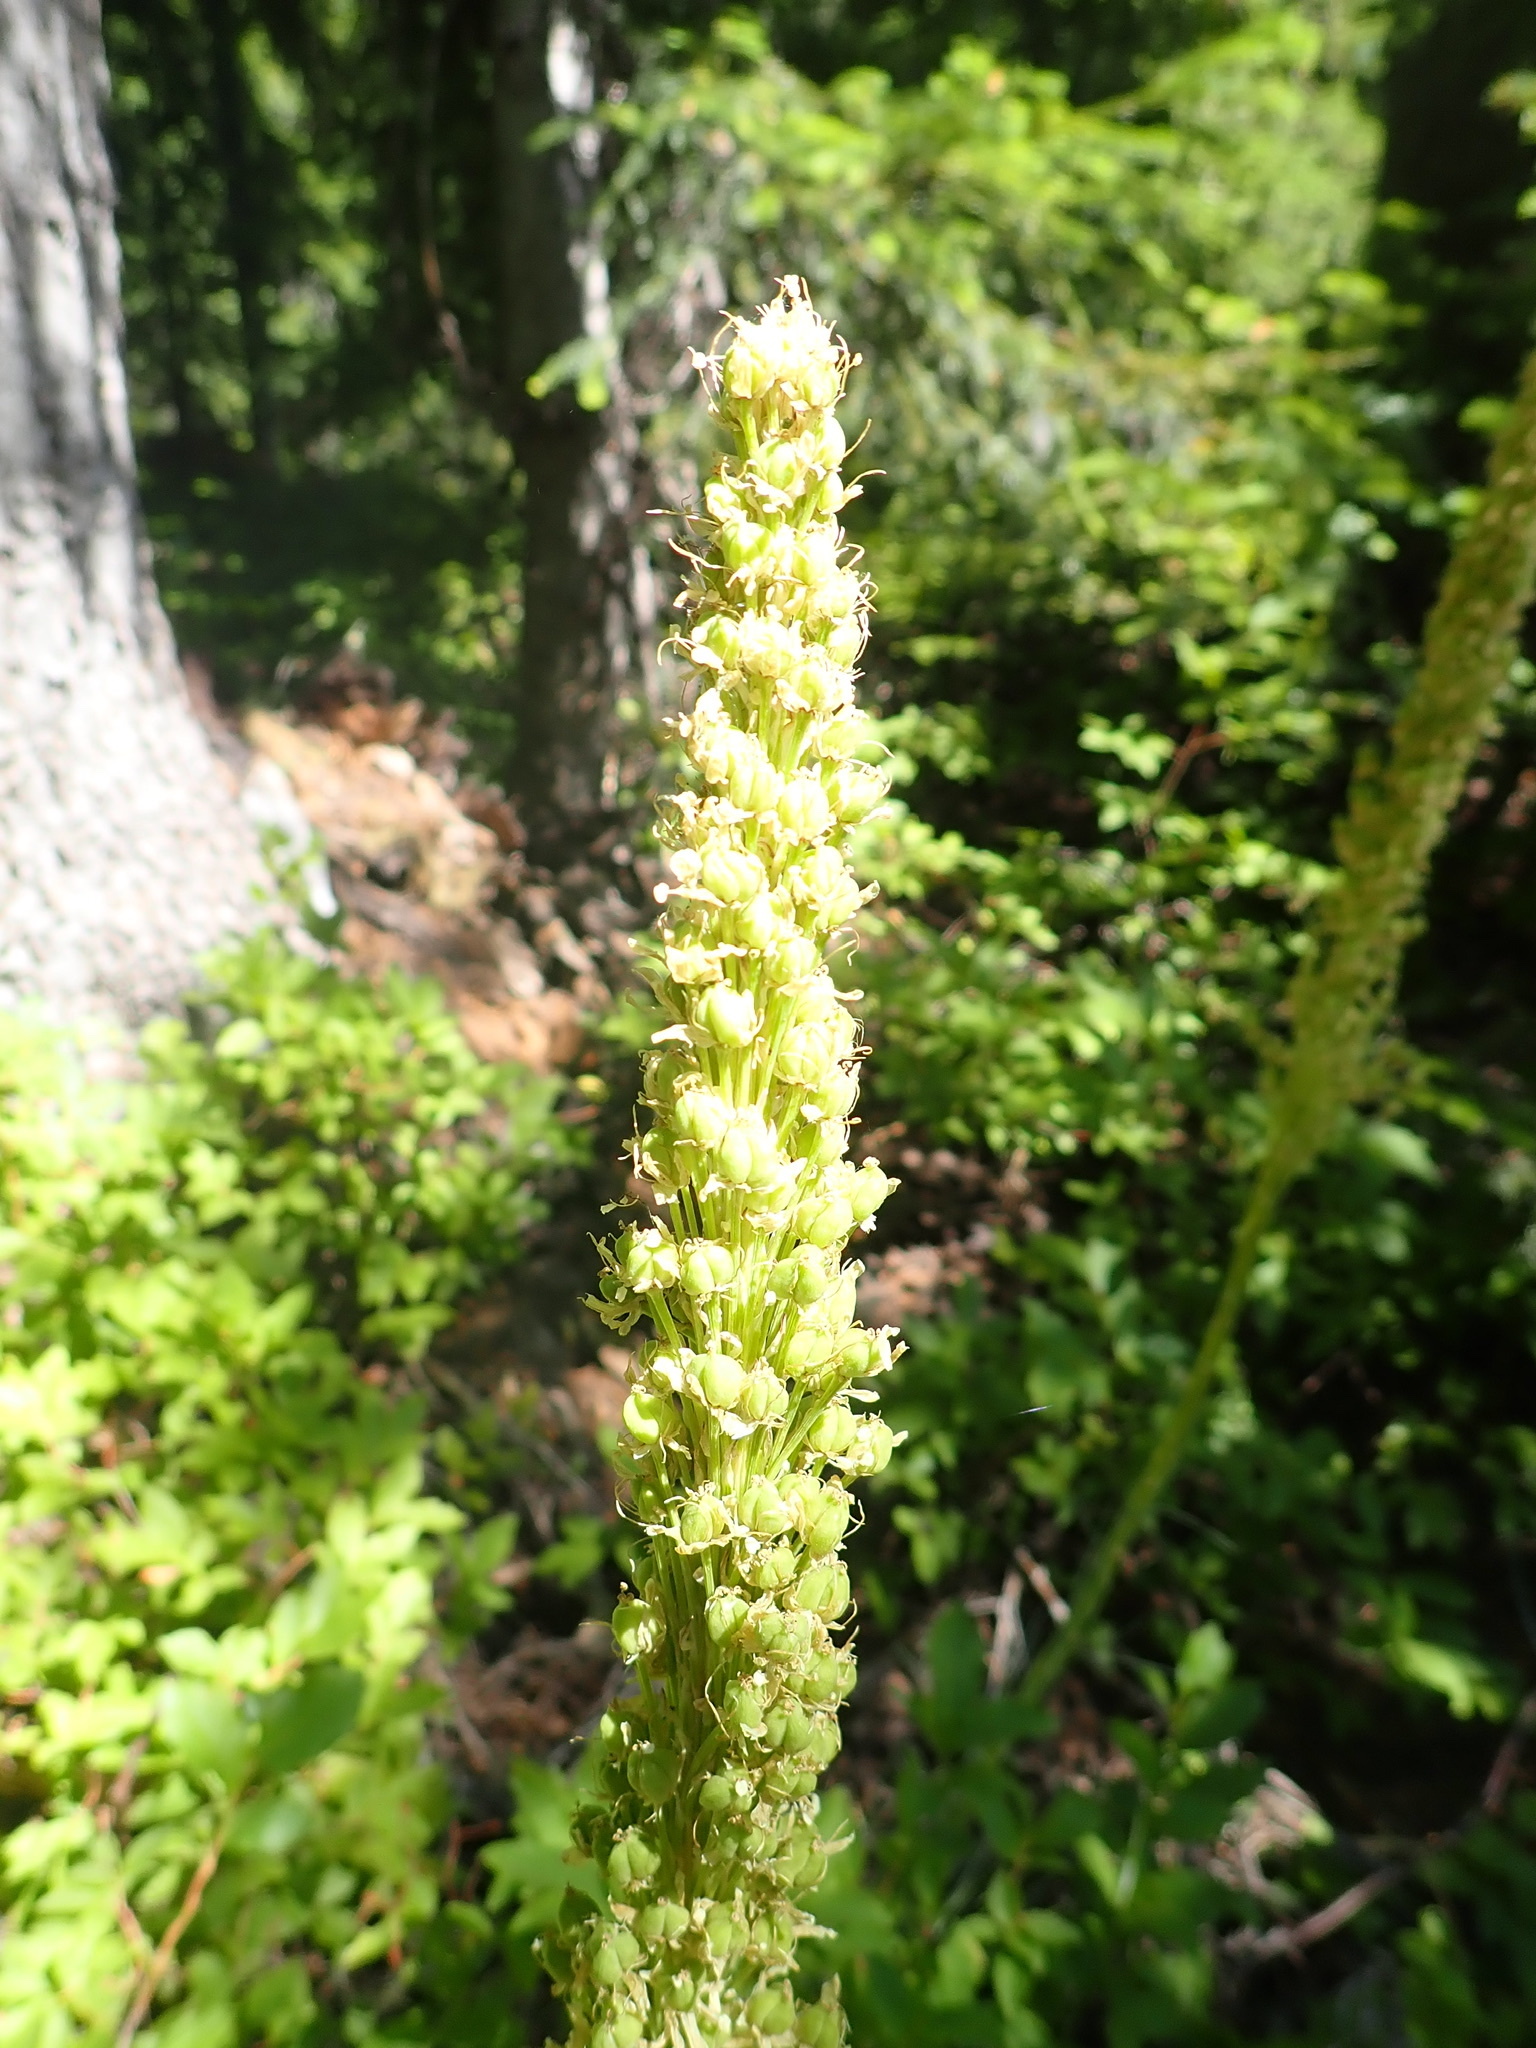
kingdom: Plantae
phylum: Tracheophyta
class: Liliopsida
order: Liliales
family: Melanthiaceae
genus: Xerophyllum
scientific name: Xerophyllum tenax
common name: Bear-grass
